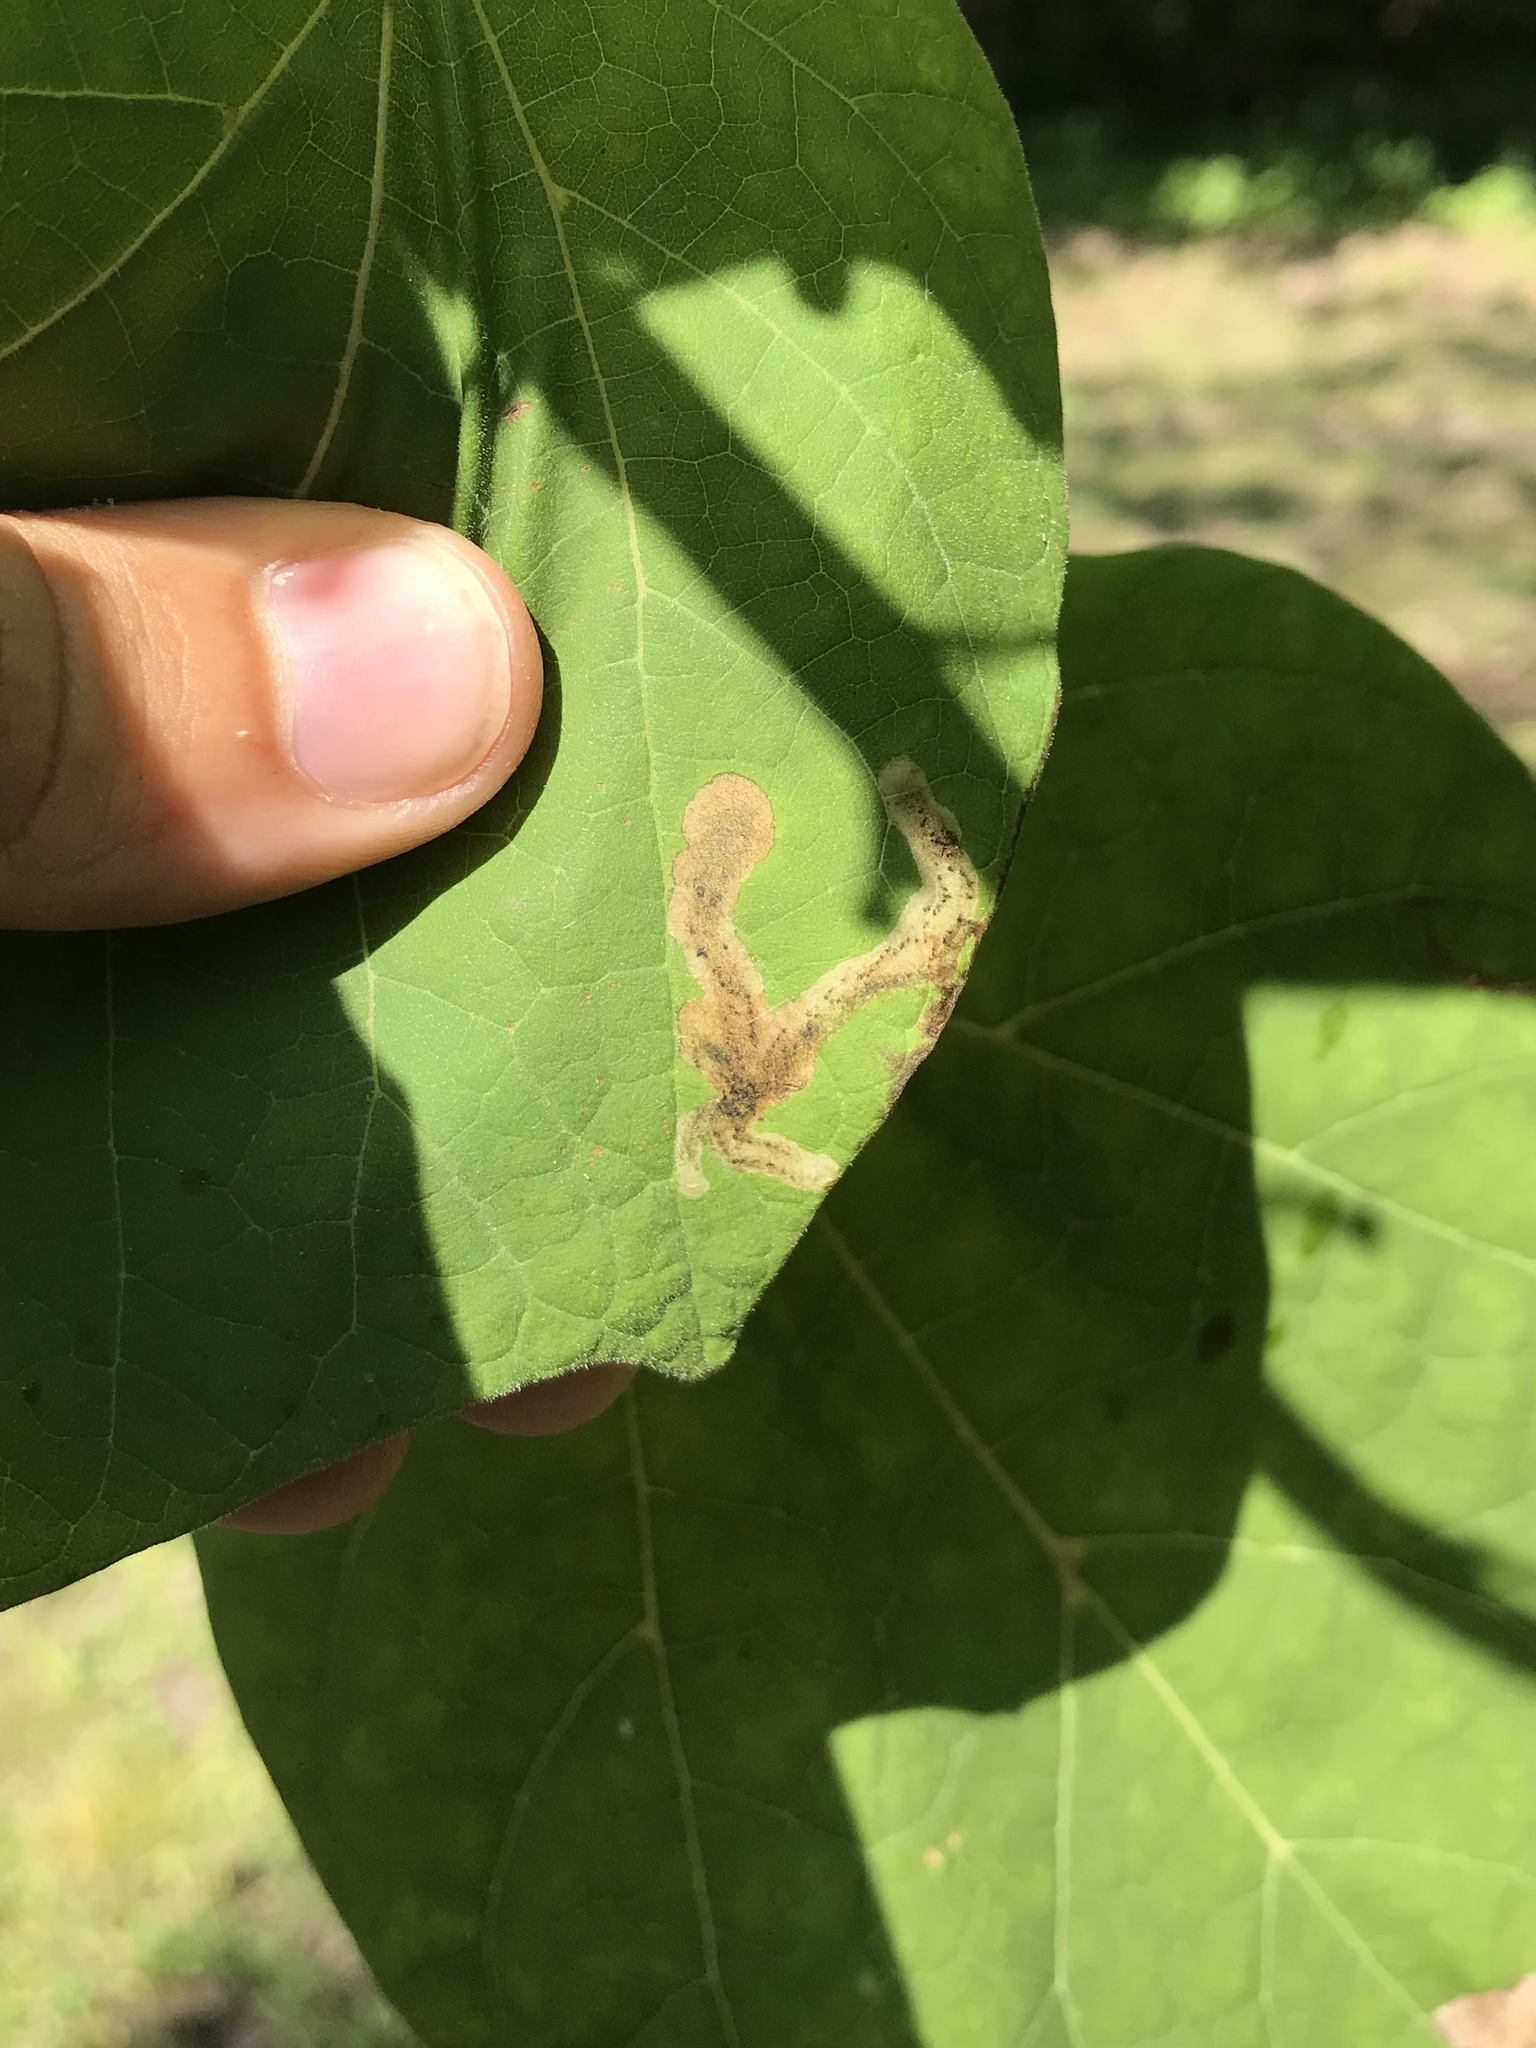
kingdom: Animalia
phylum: Arthropoda
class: Insecta
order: Diptera
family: Agromyzidae
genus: Amauromyza
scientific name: Amauromyza pleuralis
